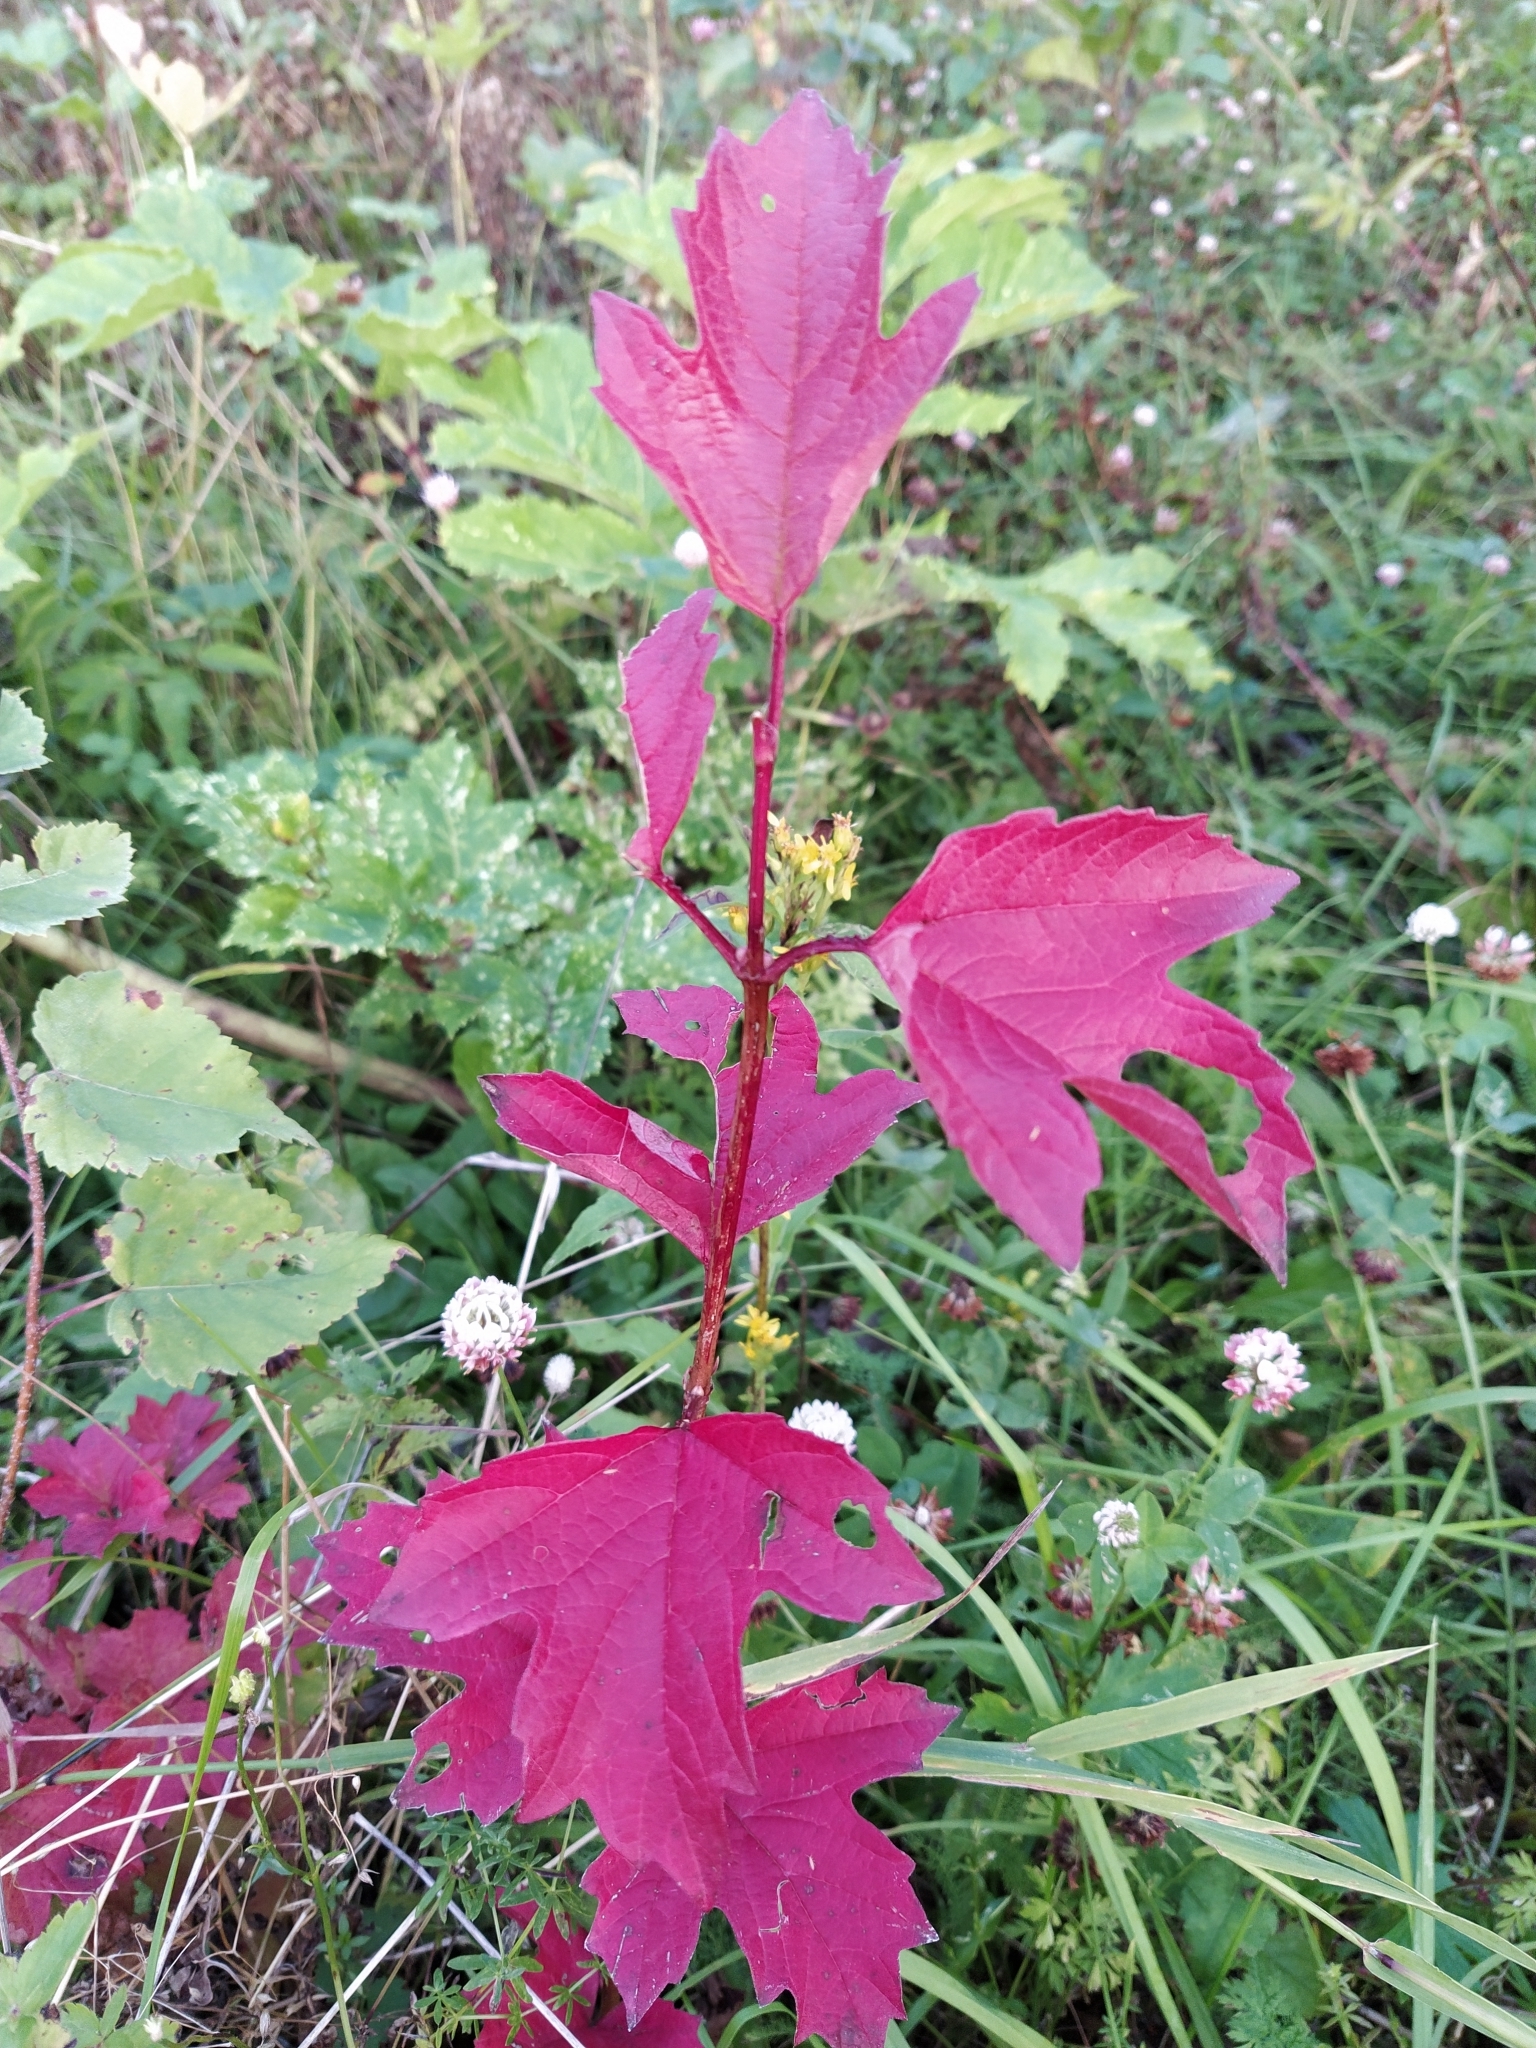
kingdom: Plantae
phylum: Tracheophyta
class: Magnoliopsida
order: Dipsacales
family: Viburnaceae
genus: Viburnum
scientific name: Viburnum opulus
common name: Guelder-rose
